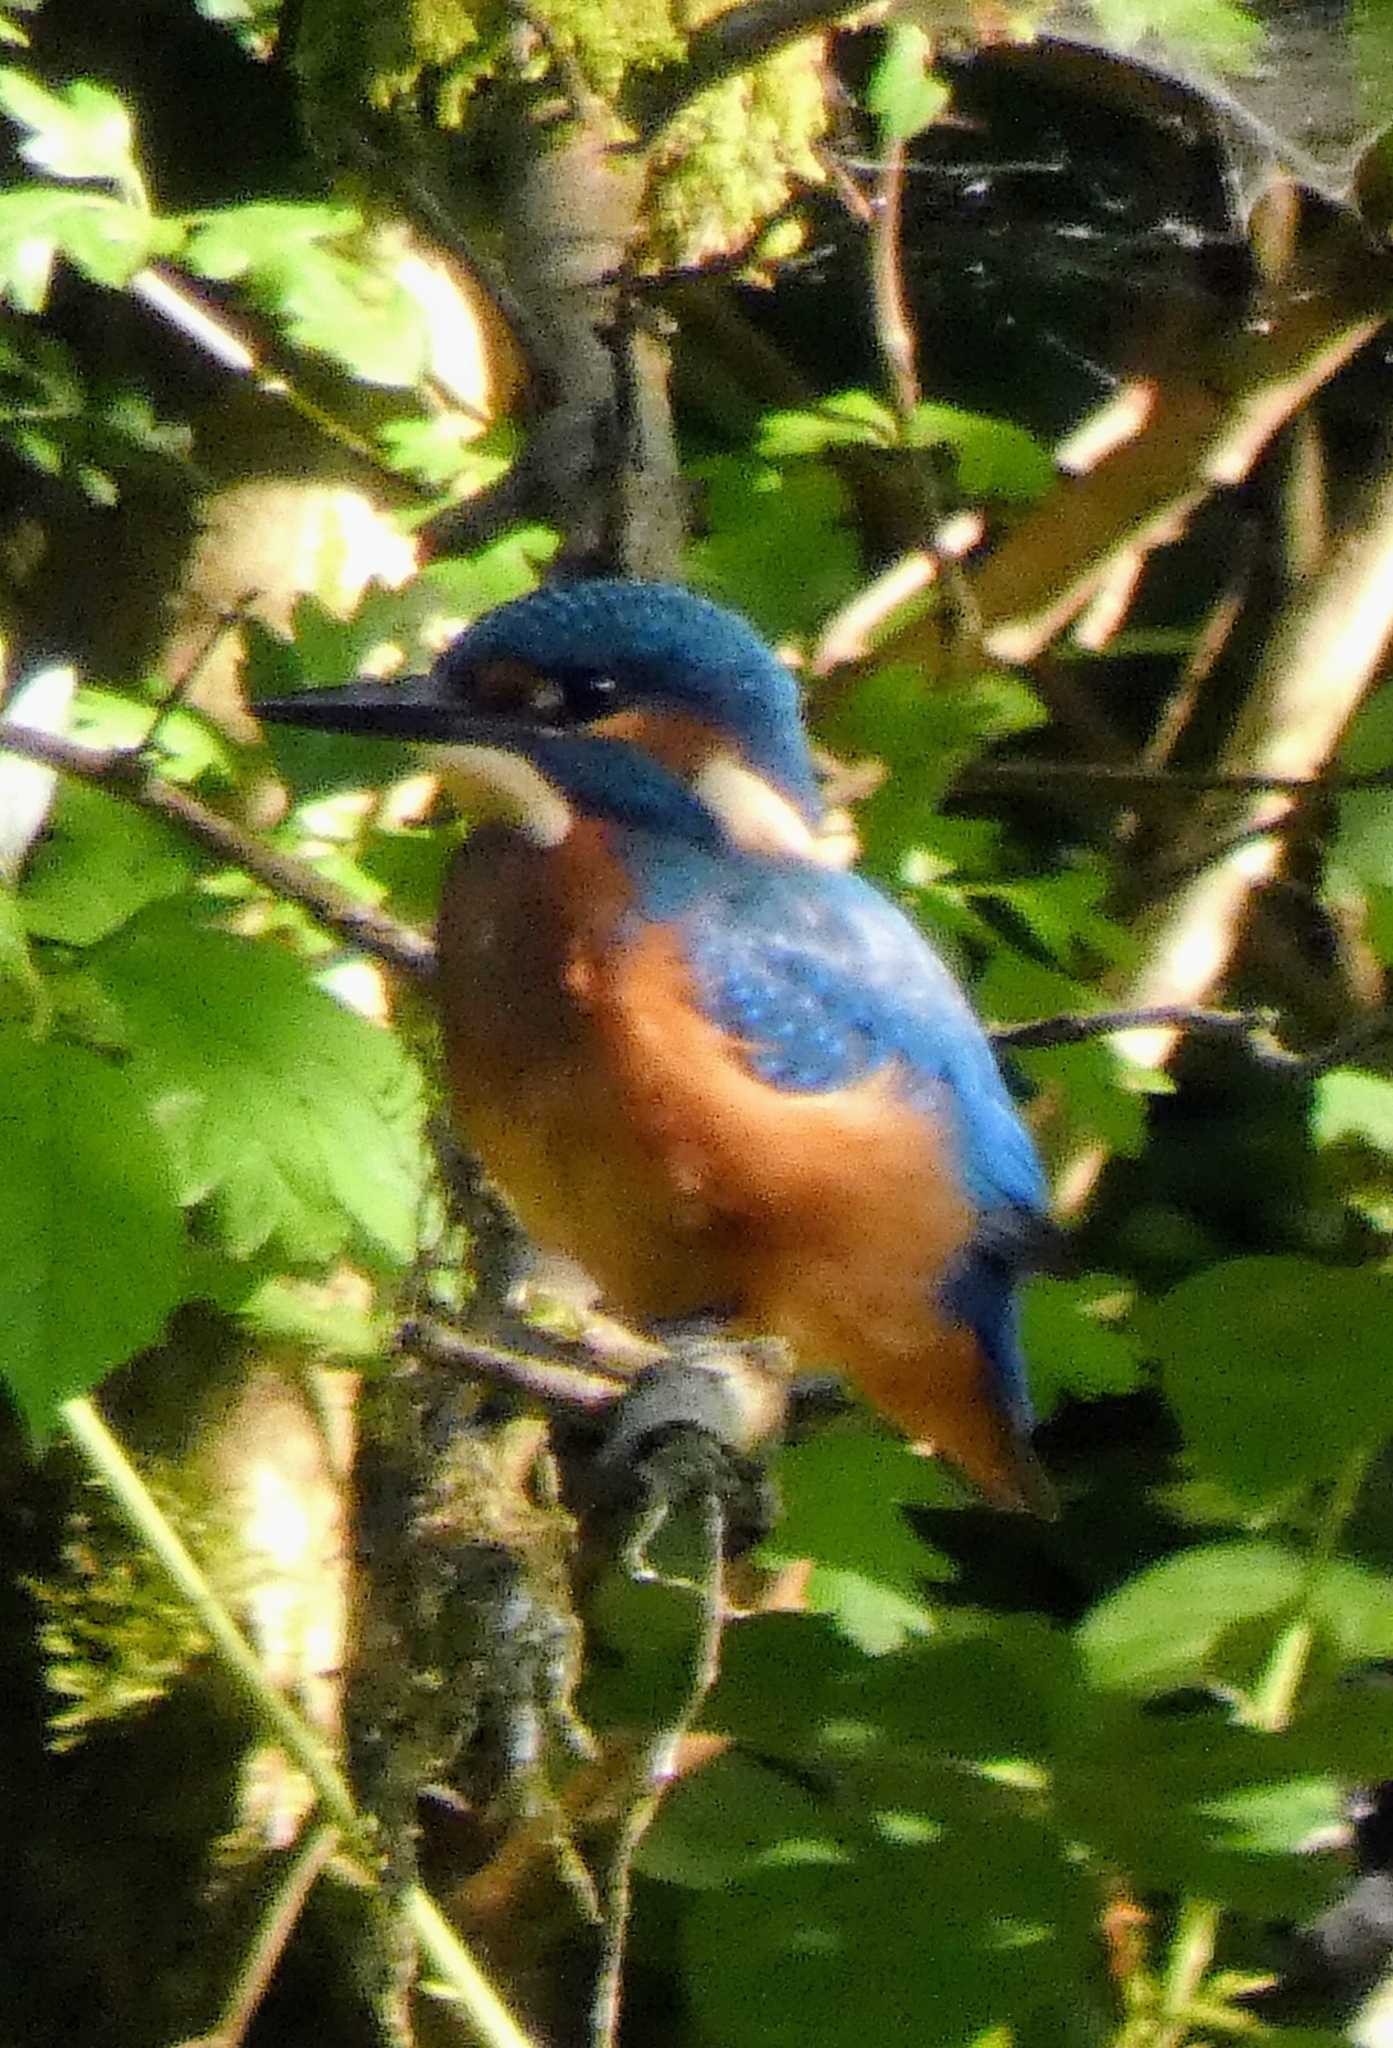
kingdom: Animalia
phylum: Chordata
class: Aves
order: Coraciiformes
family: Alcedinidae
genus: Alcedo
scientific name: Alcedo atthis
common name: Common kingfisher
